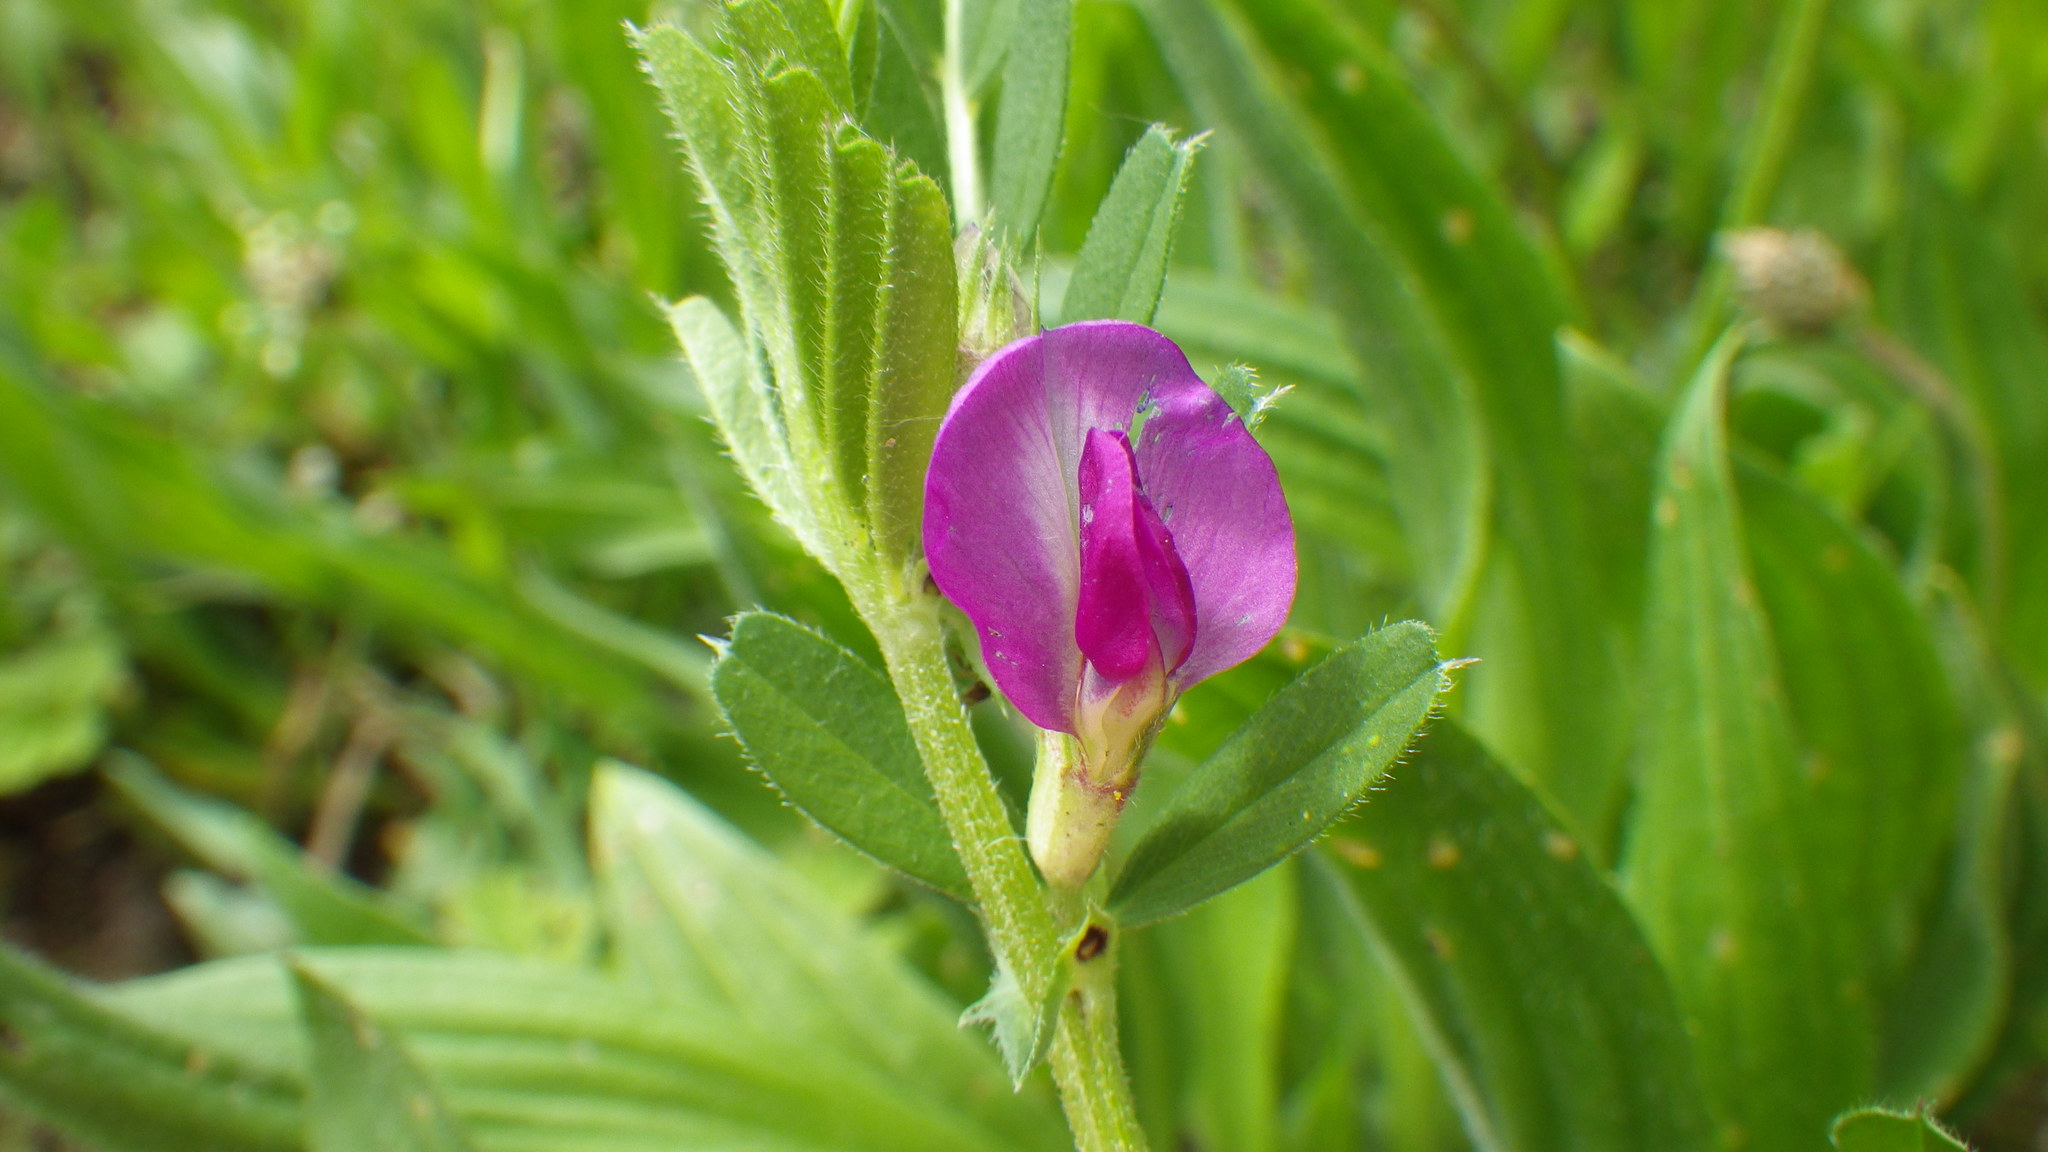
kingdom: Plantae
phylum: Tracheophyta
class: Magnoliopsida
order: Fabales
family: Fabaceae
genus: Vicia
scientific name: Vicia sativa
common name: Garden vetch
